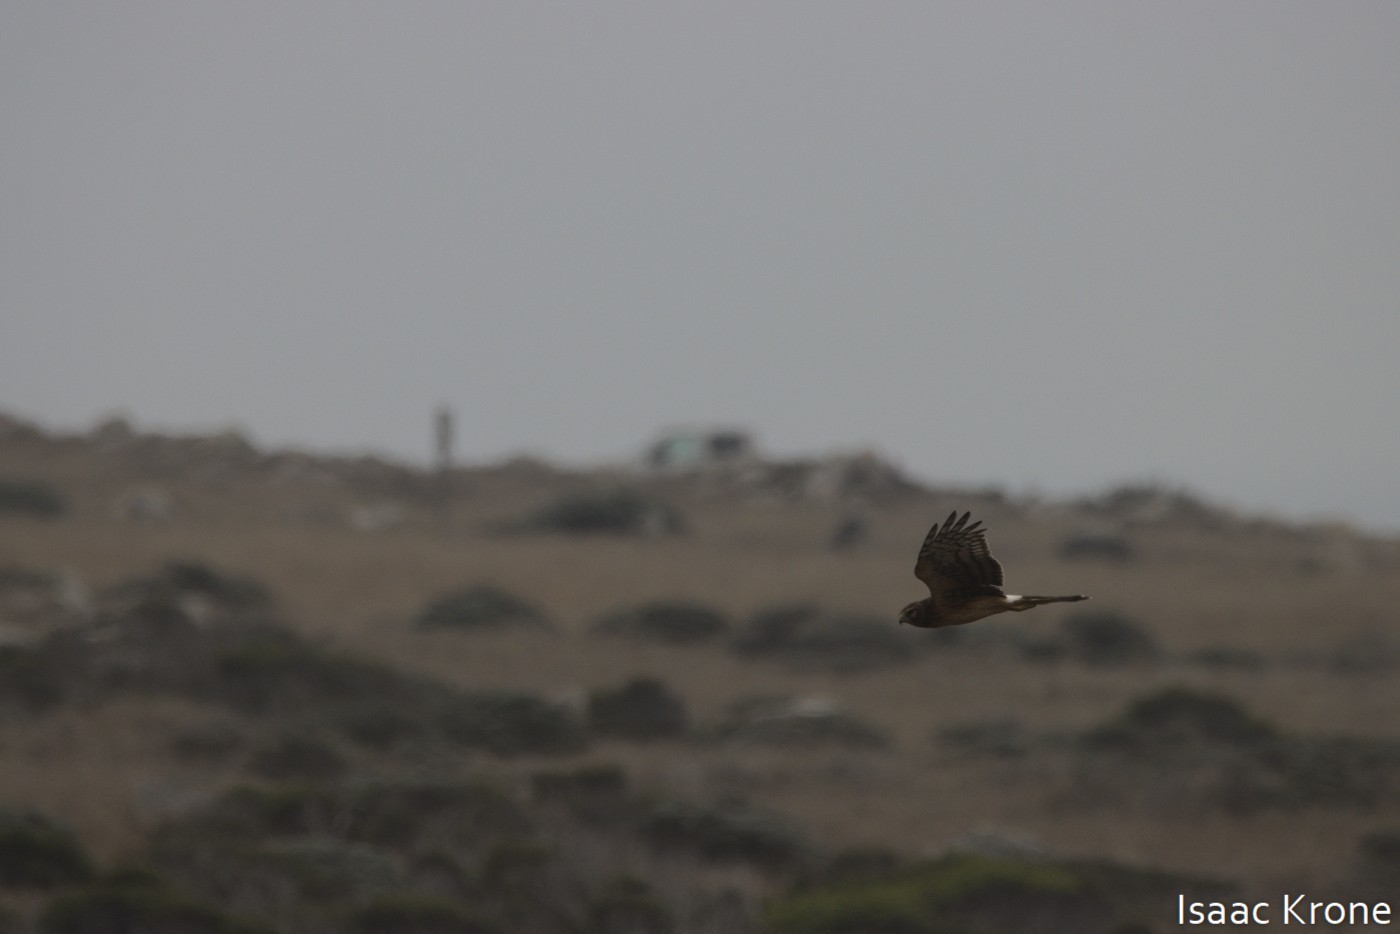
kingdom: Animalia
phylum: Chordata
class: Aves
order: Accipitriformes
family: Accipitridae
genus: Circus
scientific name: Circus cyaneus
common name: Hen harrier
